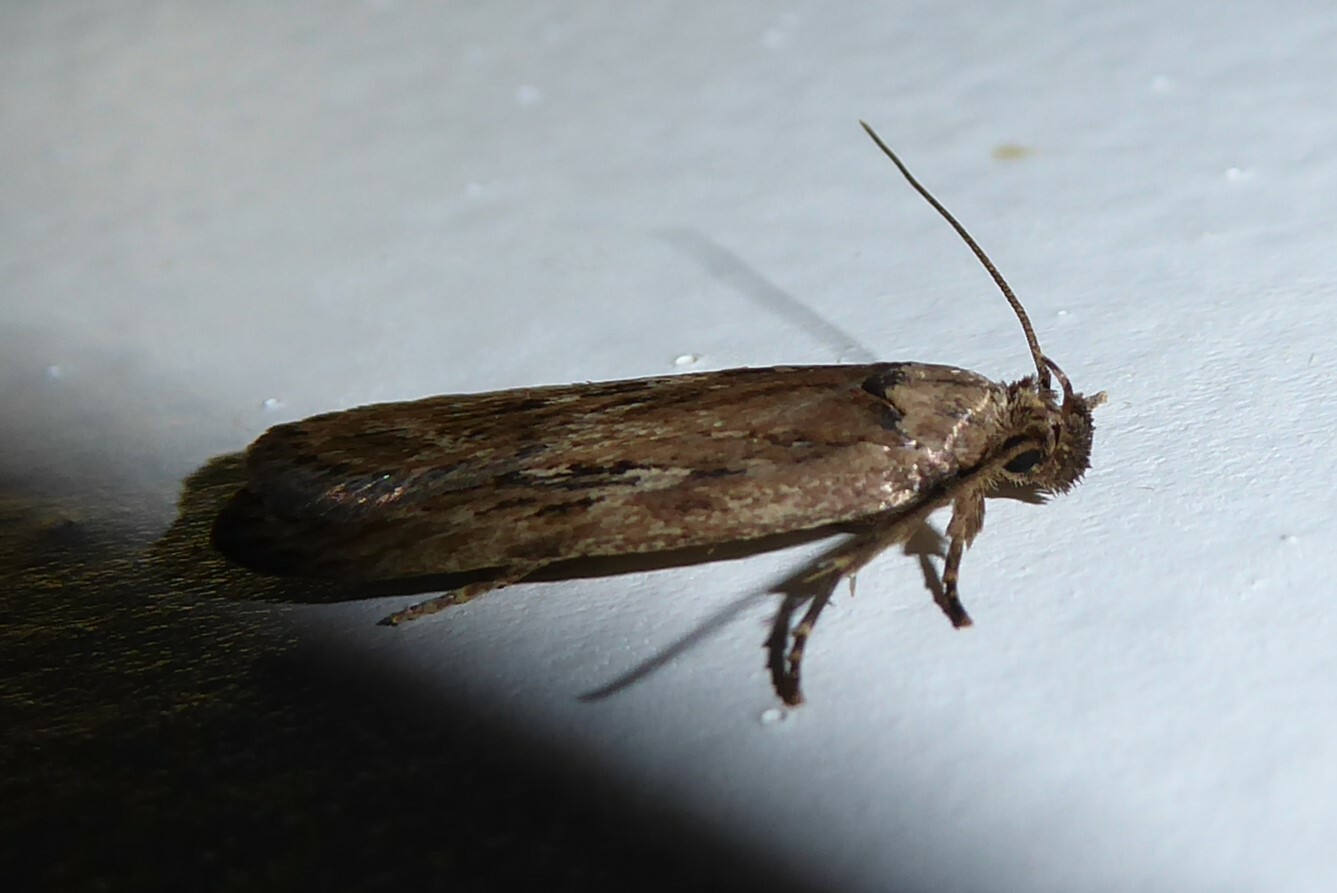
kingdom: Animalia
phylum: Arthropoda
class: Insecta
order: Lepidoptera
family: Depressariidae
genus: Depressaria
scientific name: Depressaria radiella
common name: Parsnip moth
